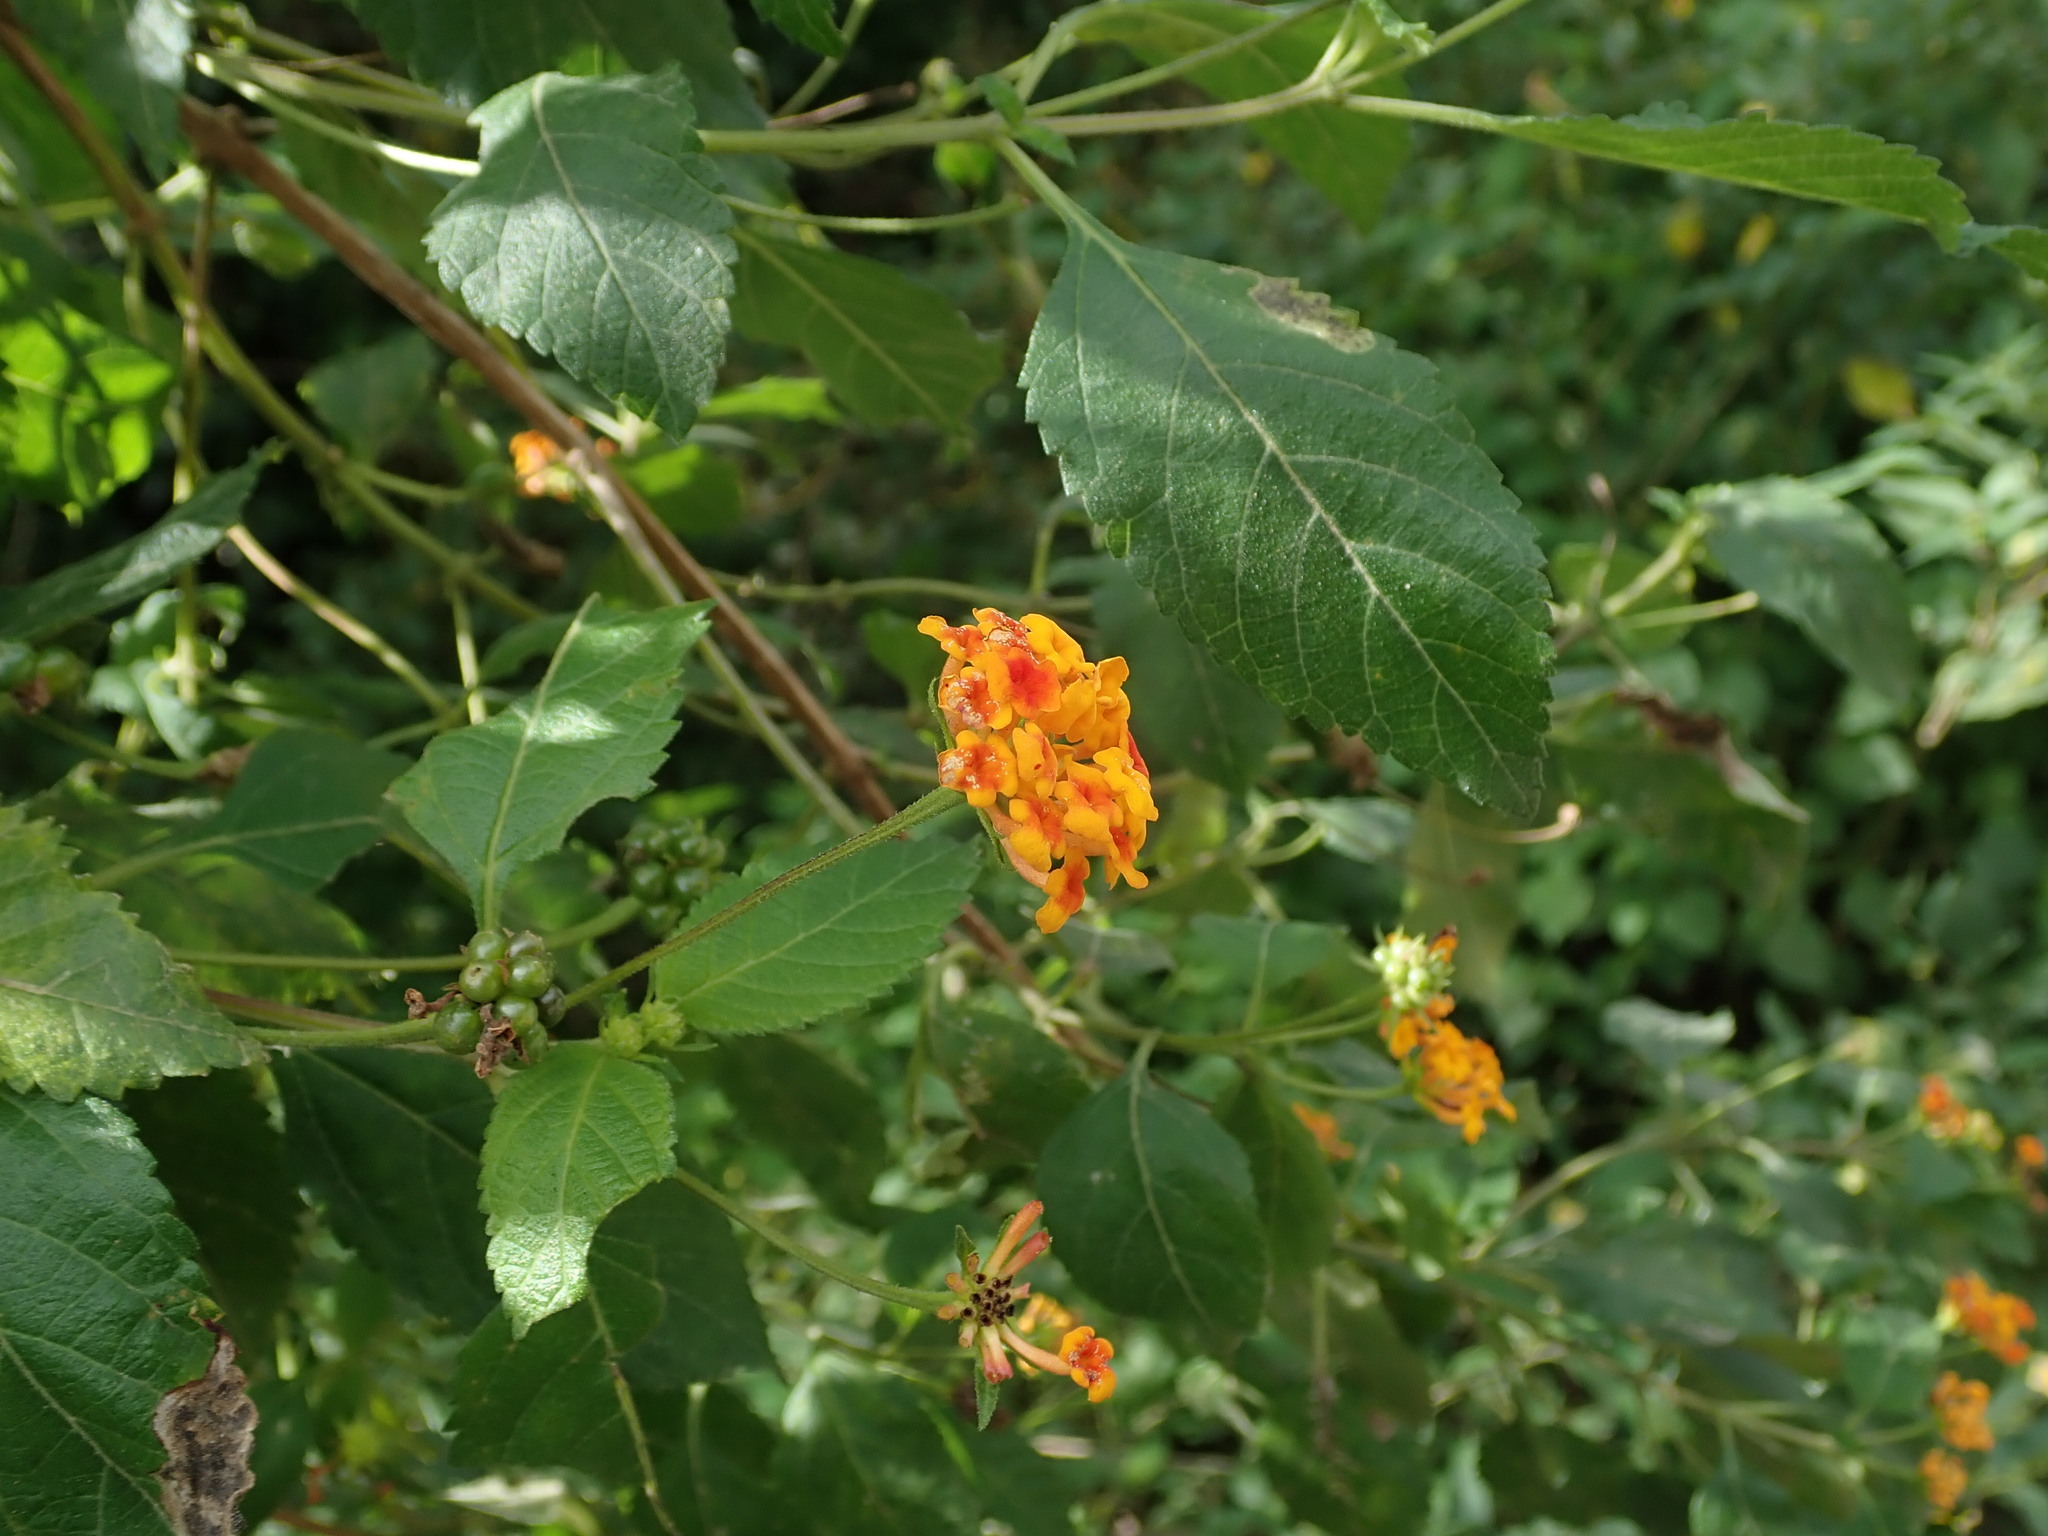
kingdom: Plantae
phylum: Tracheophyta
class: Magnoliopsida
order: Lamiales
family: Verbenaceae
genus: Lantana
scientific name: Lantana camara
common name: Lantana
